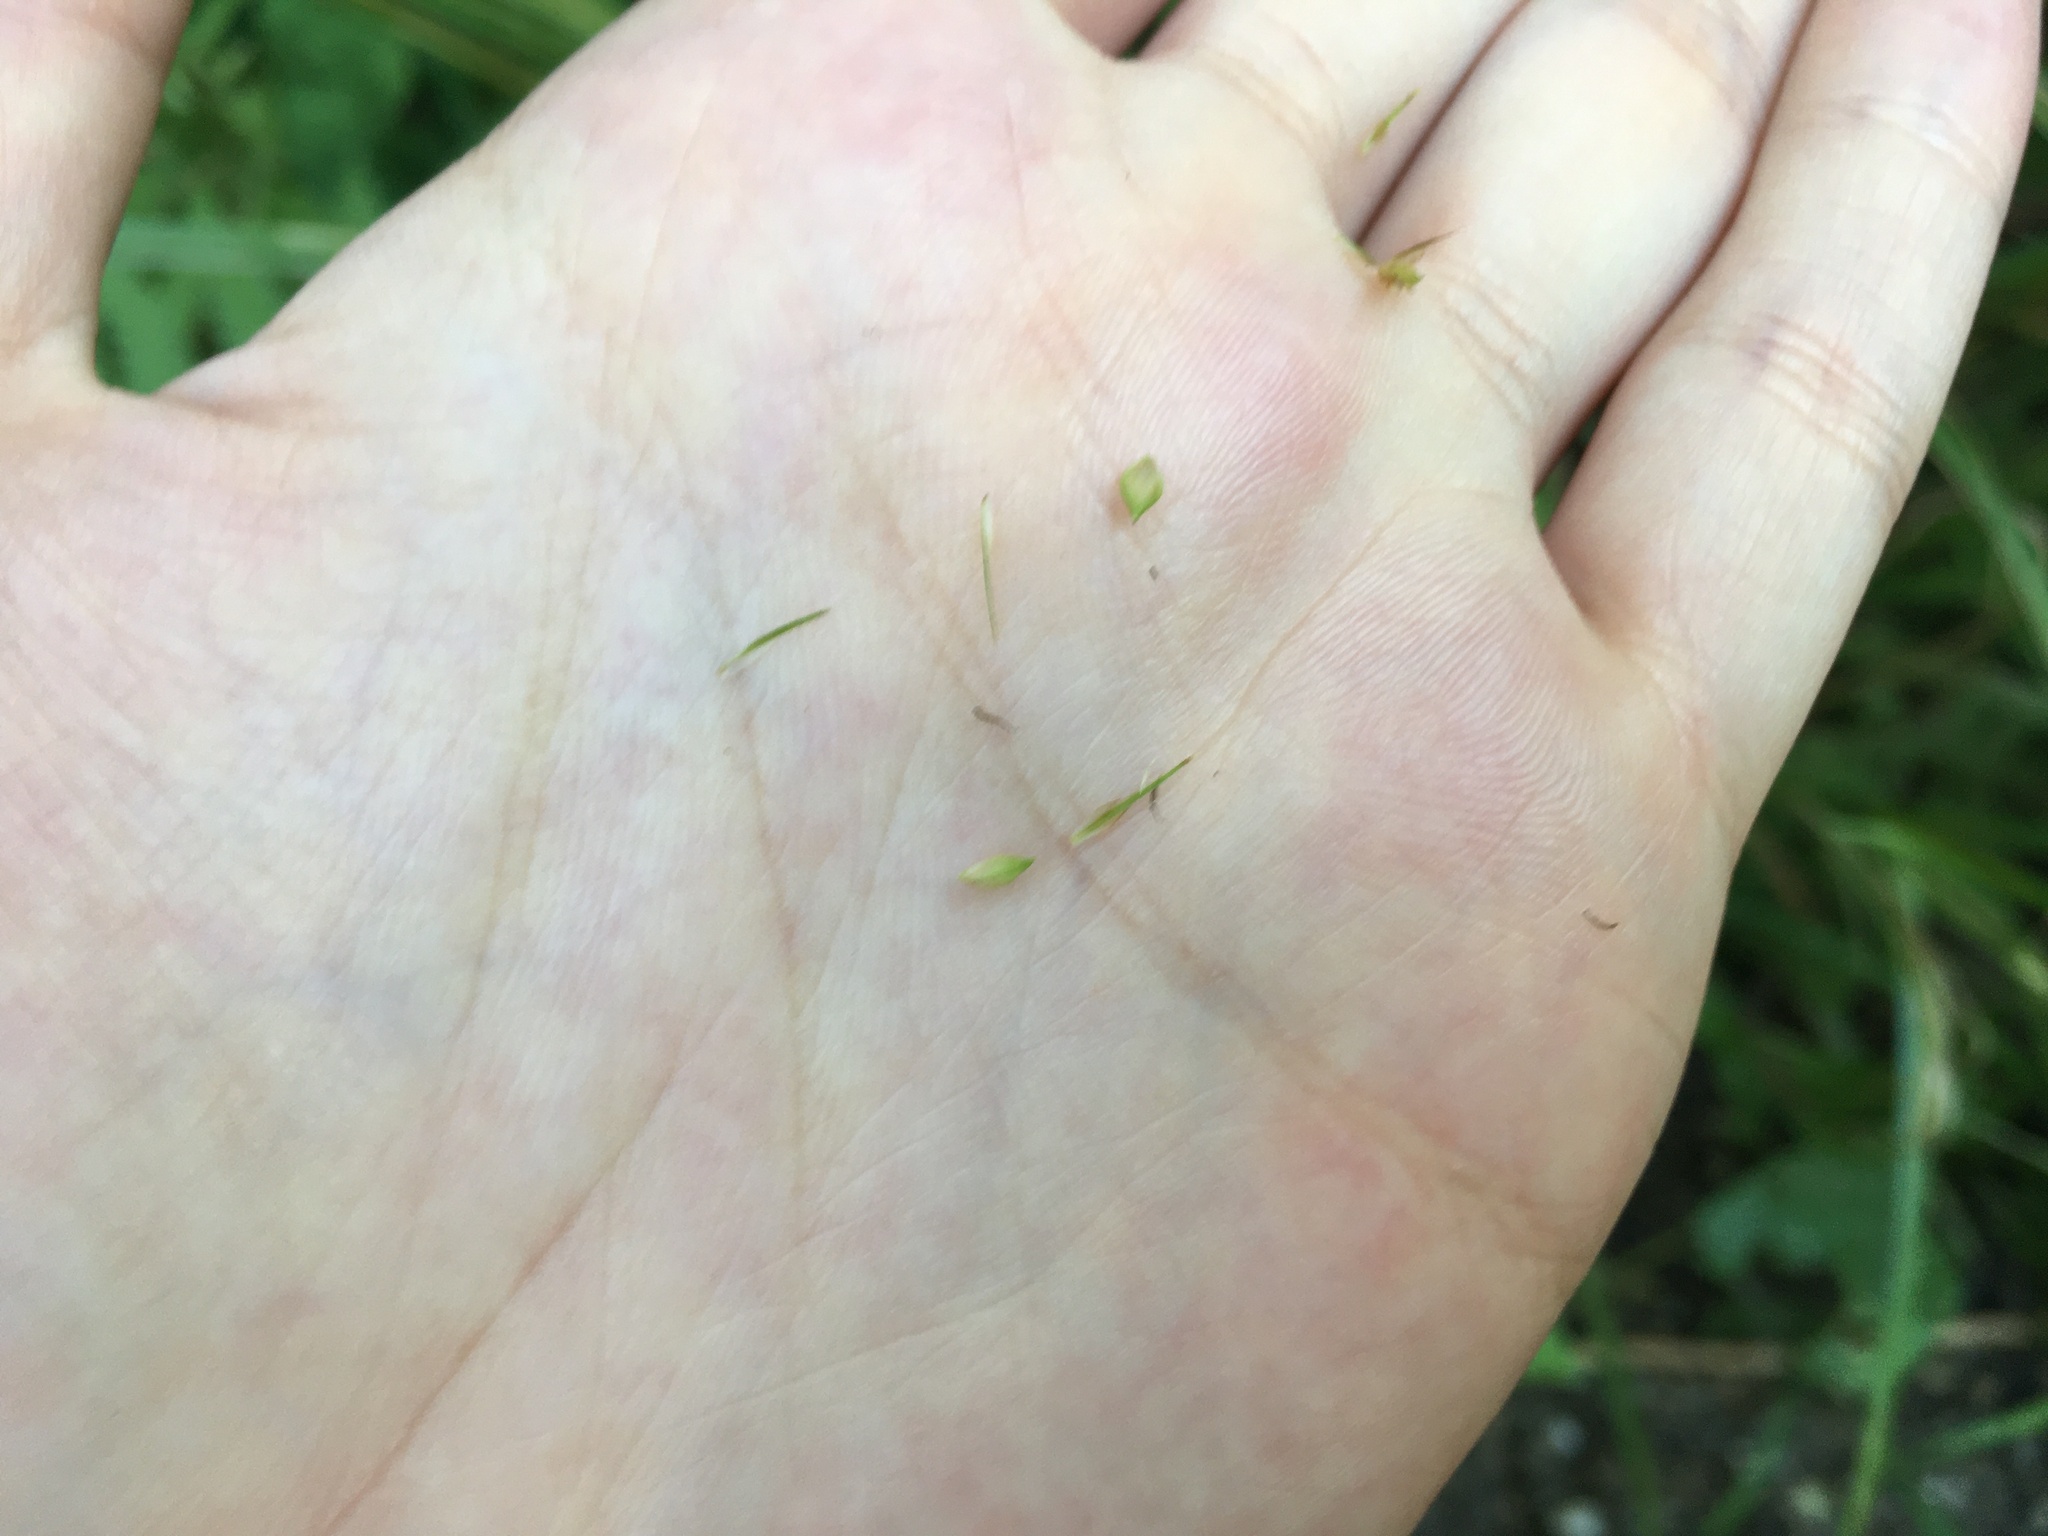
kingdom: Plantae
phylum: Tracheophyta
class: Liliopsida
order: Poales
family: Cyperaceae
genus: Carex
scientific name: Carex gynandra
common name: Nodding sedge
